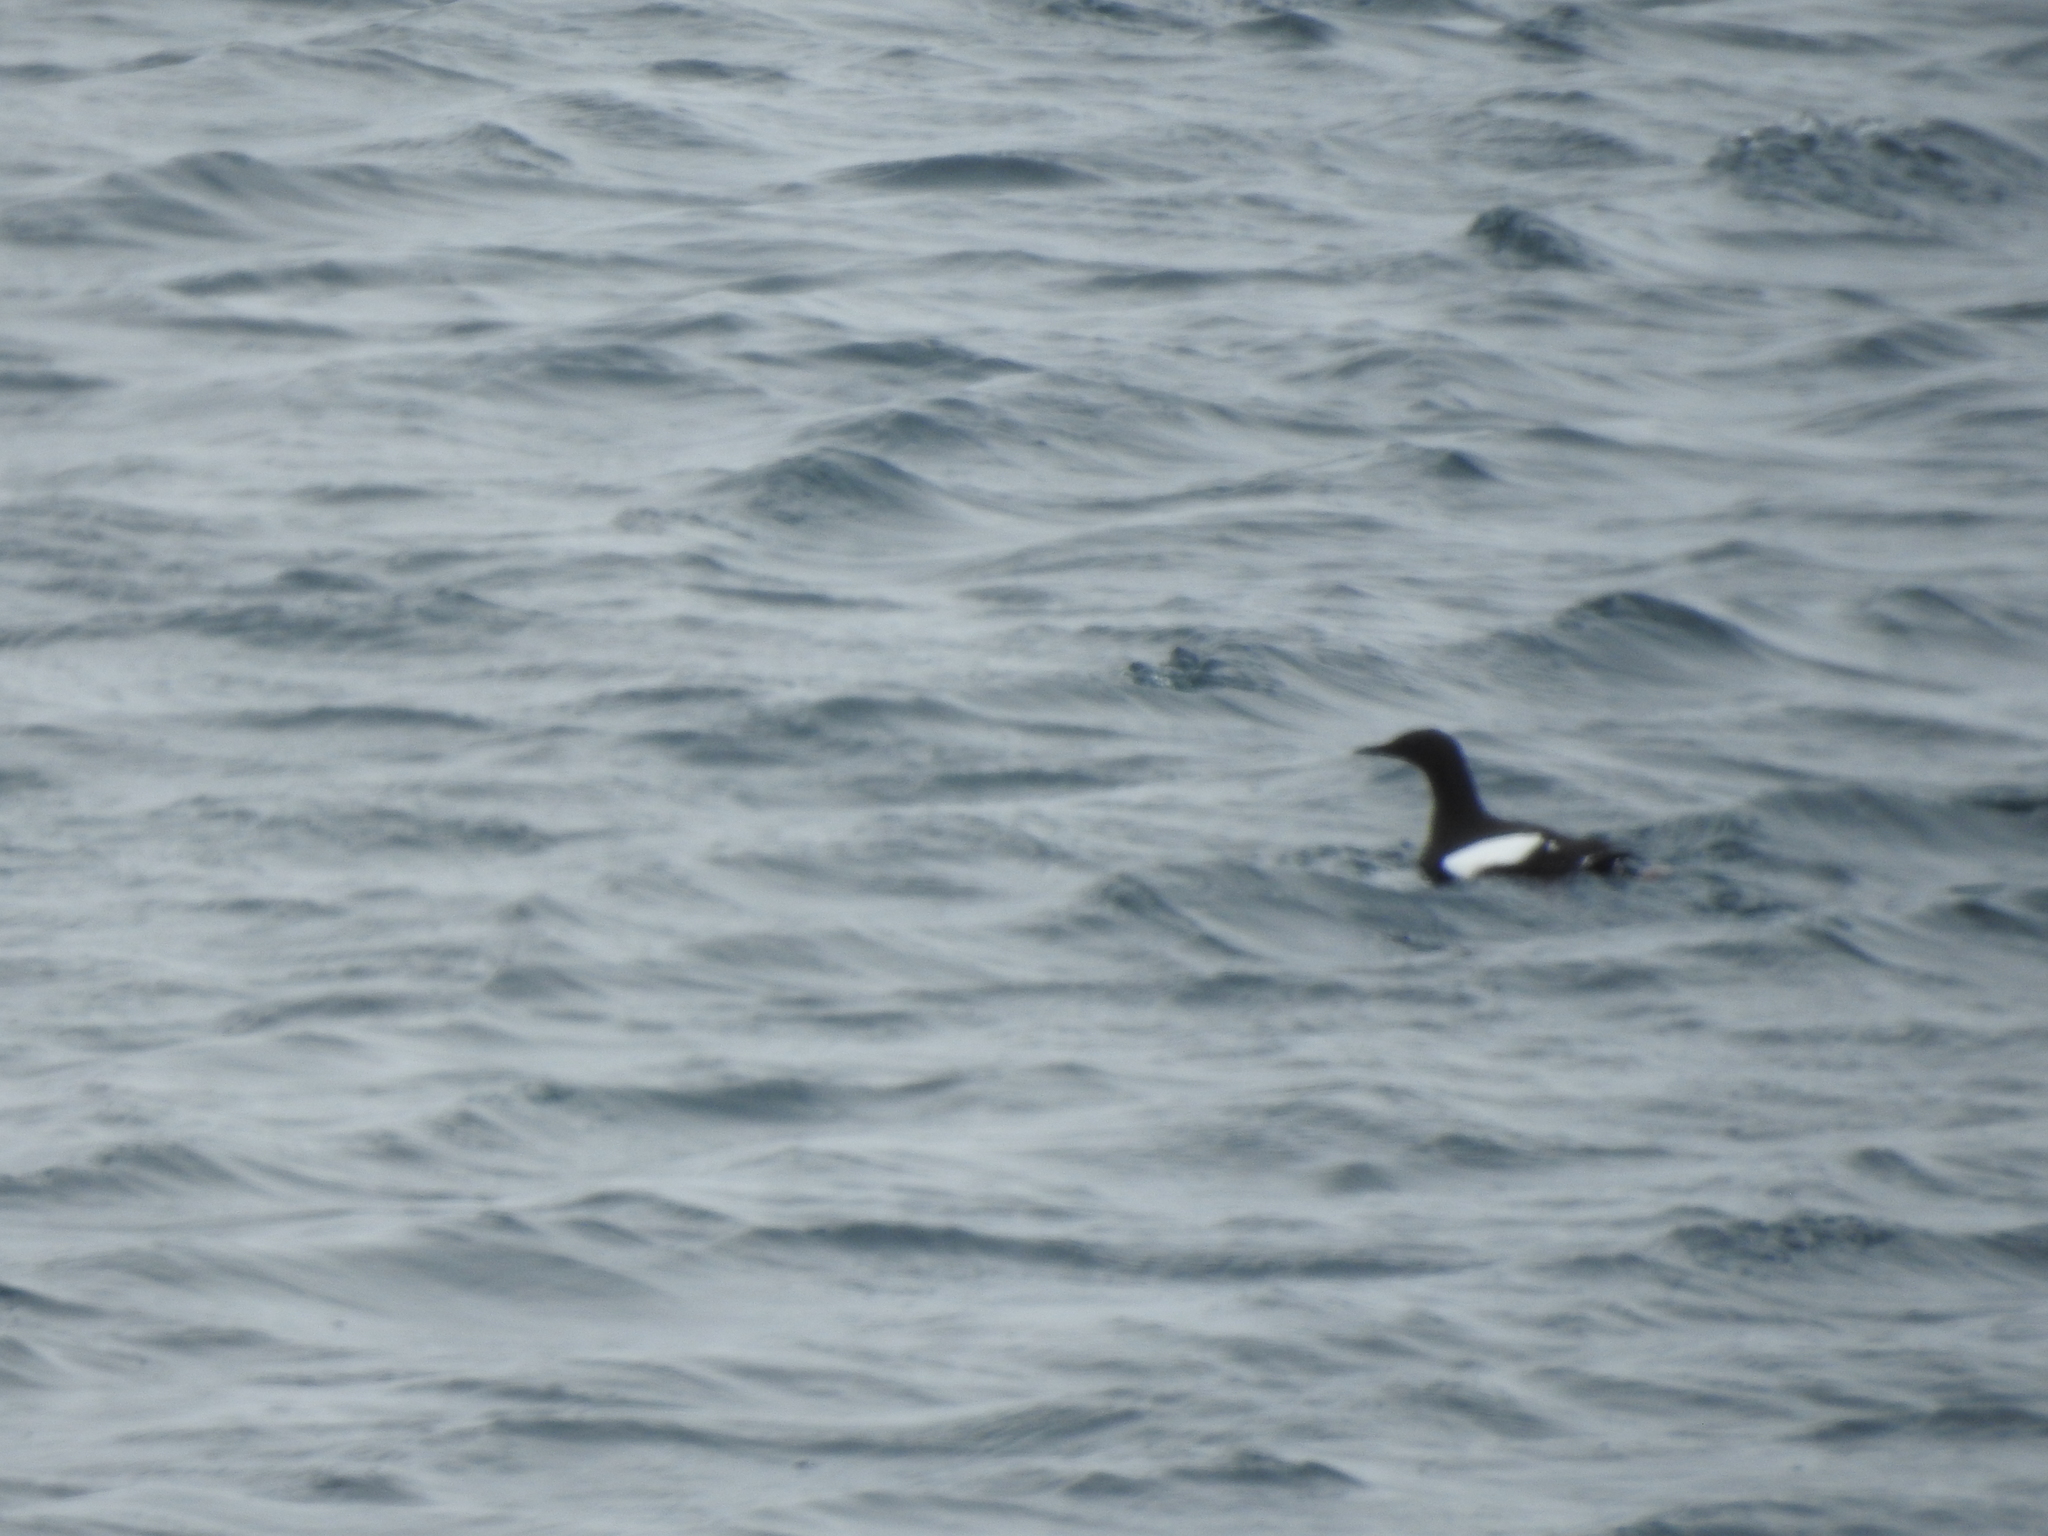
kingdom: Animalia
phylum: Chordata
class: Aves
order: Charadriiformes
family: Alcidae
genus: Cepphus
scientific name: Cepphus grylle
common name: Black guillemot
